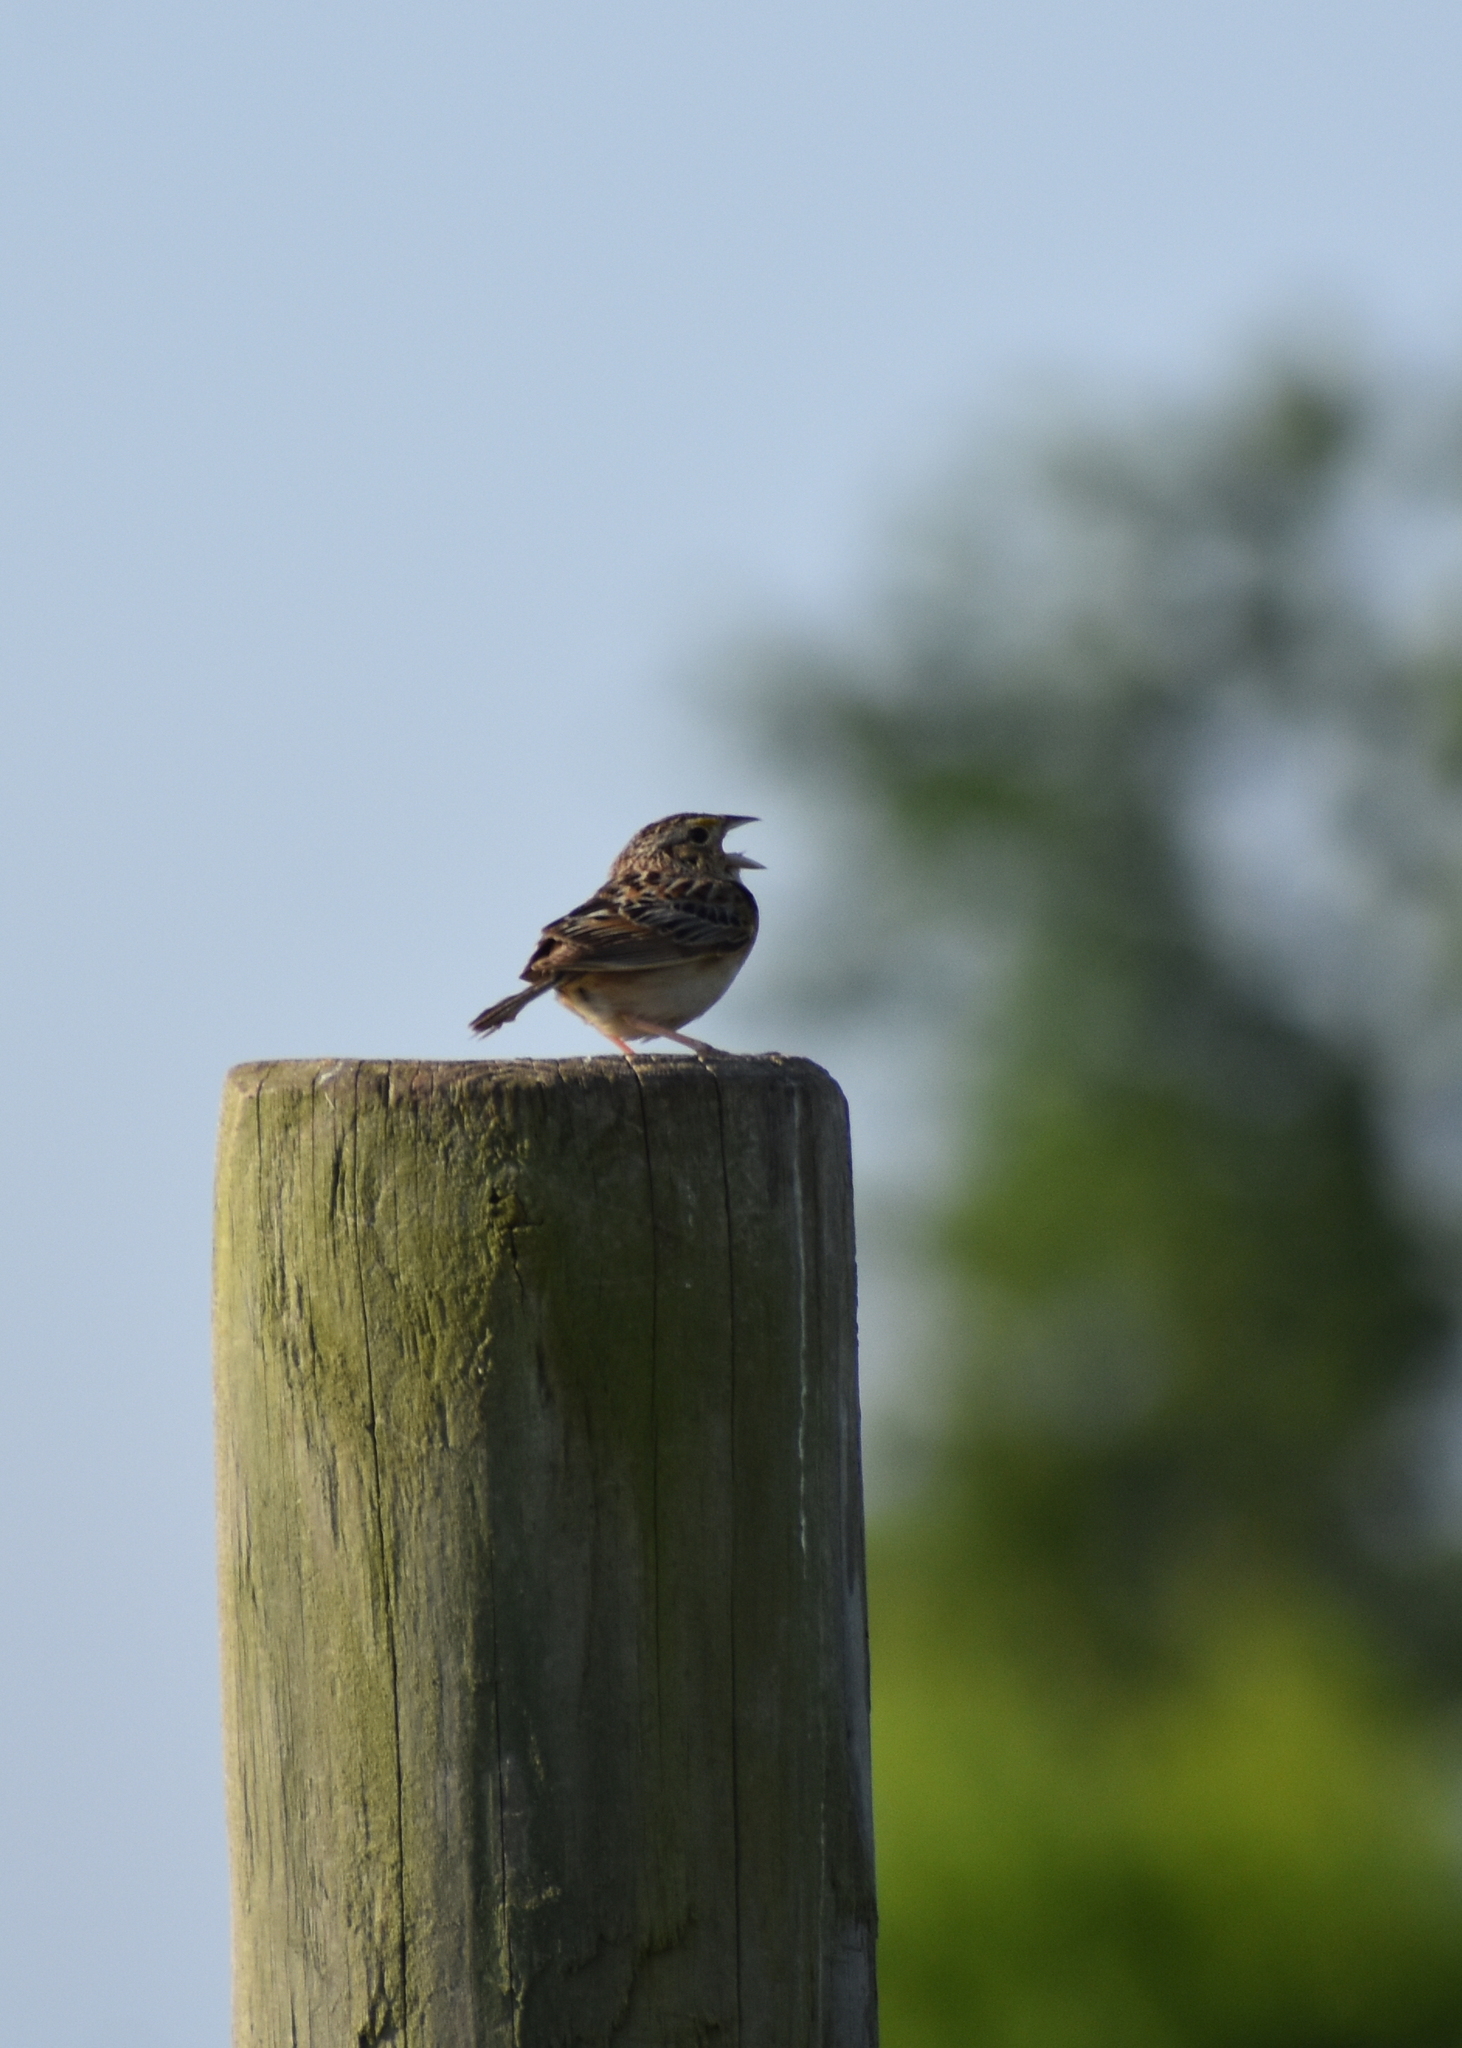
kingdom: Animalia
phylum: Chordata
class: Aves
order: Passeriformes
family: Passerellidae
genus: Ammodramus
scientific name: Ammodramus savannarum
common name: Grasshopper sparrow
